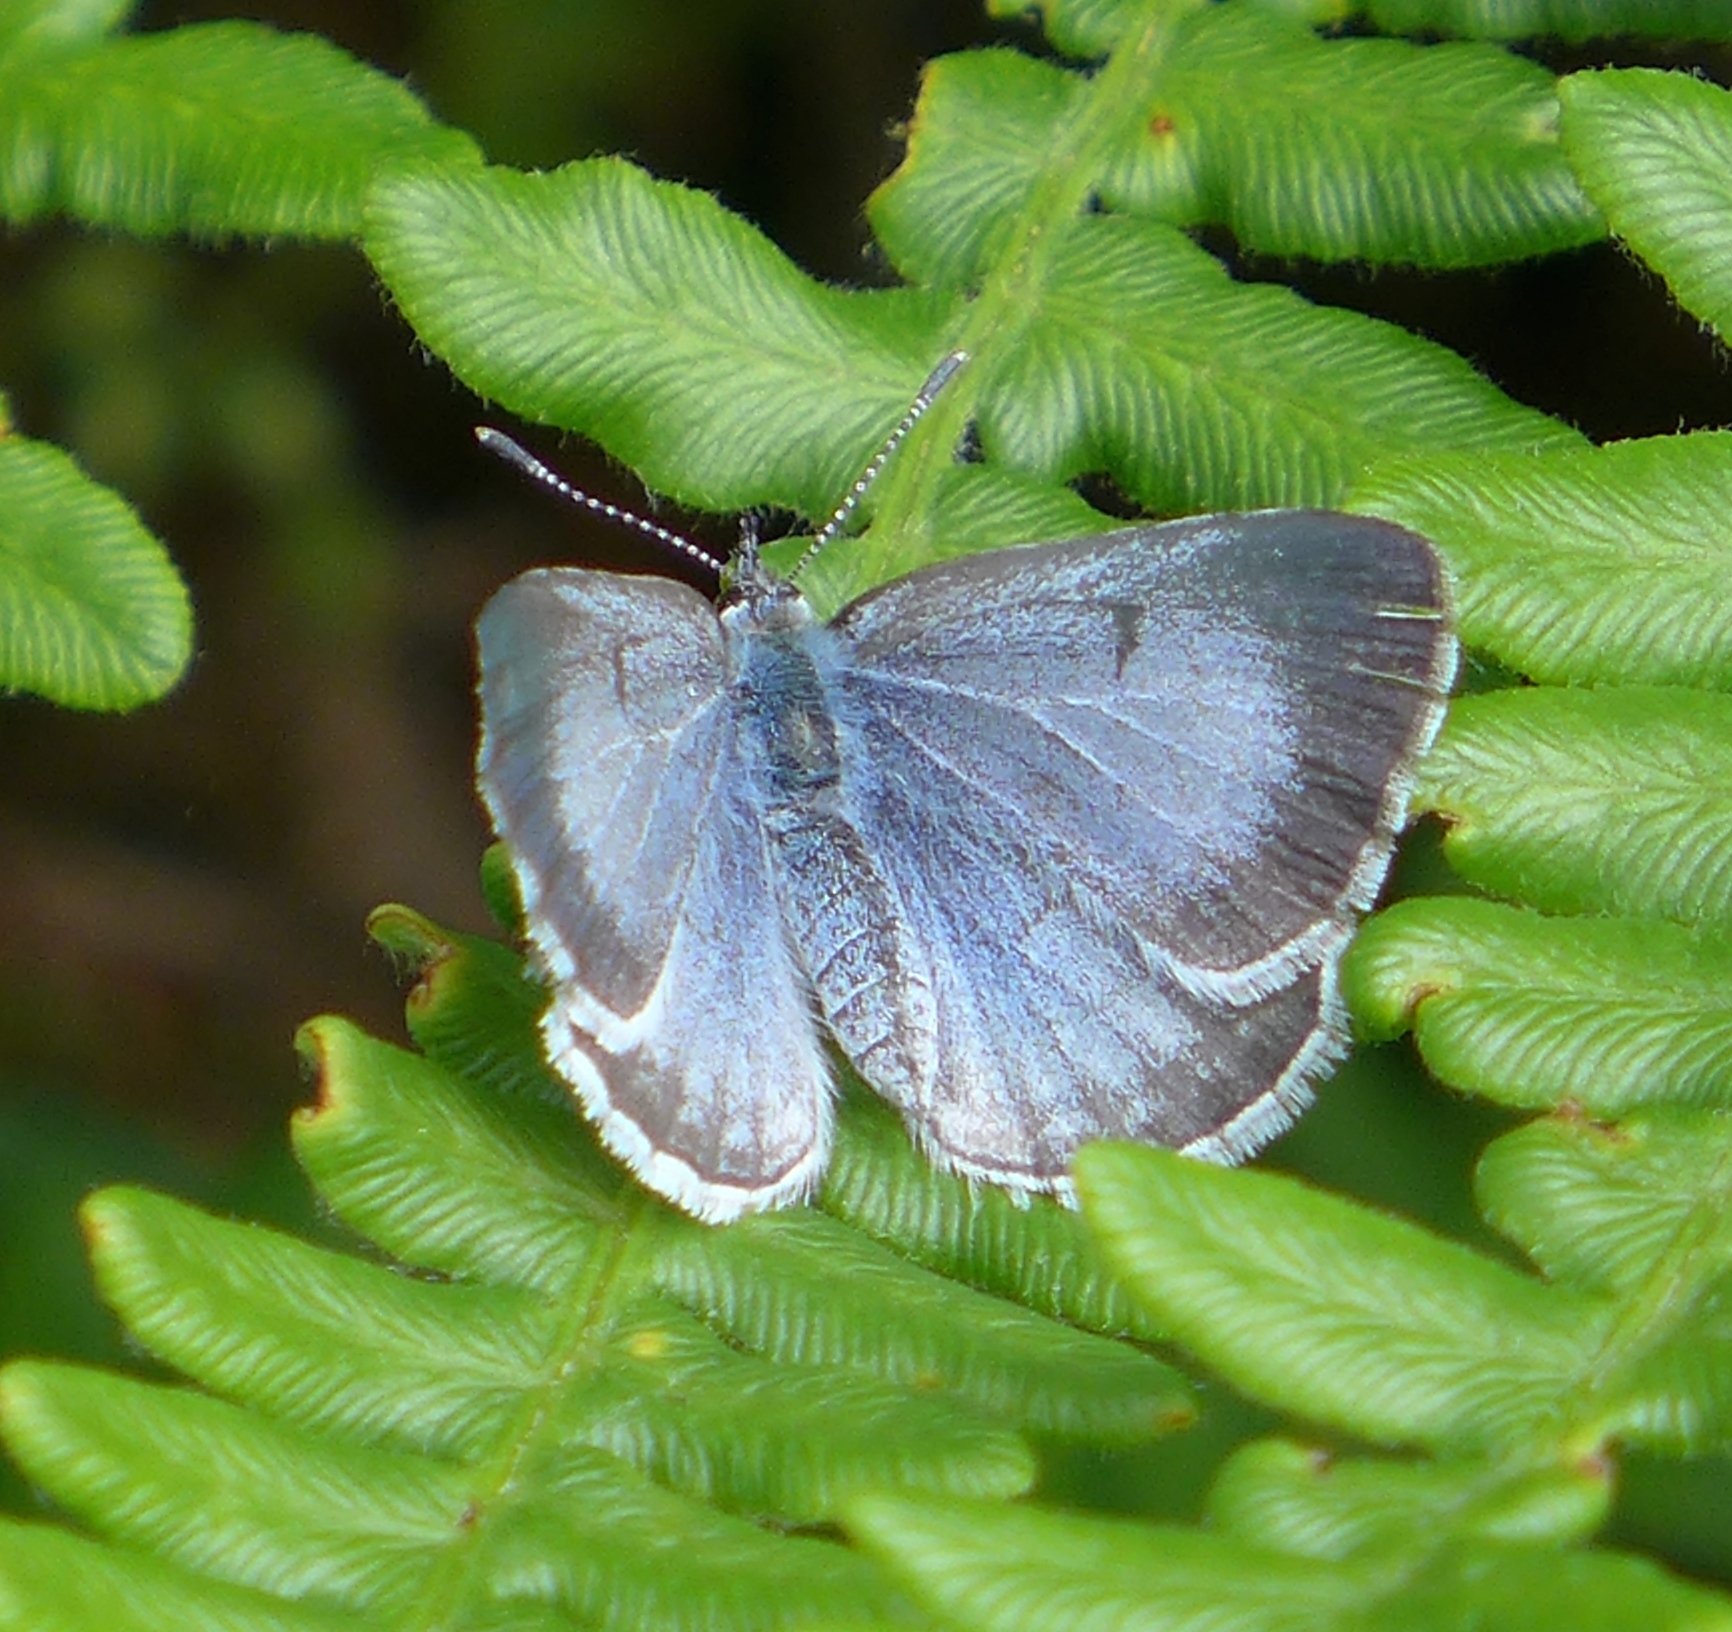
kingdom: Animalia
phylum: Arthropoda
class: Insecta
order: Lepidoptera
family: Lycaenidae
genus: Celastrina
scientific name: Celastrina ladon
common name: Spring azure
